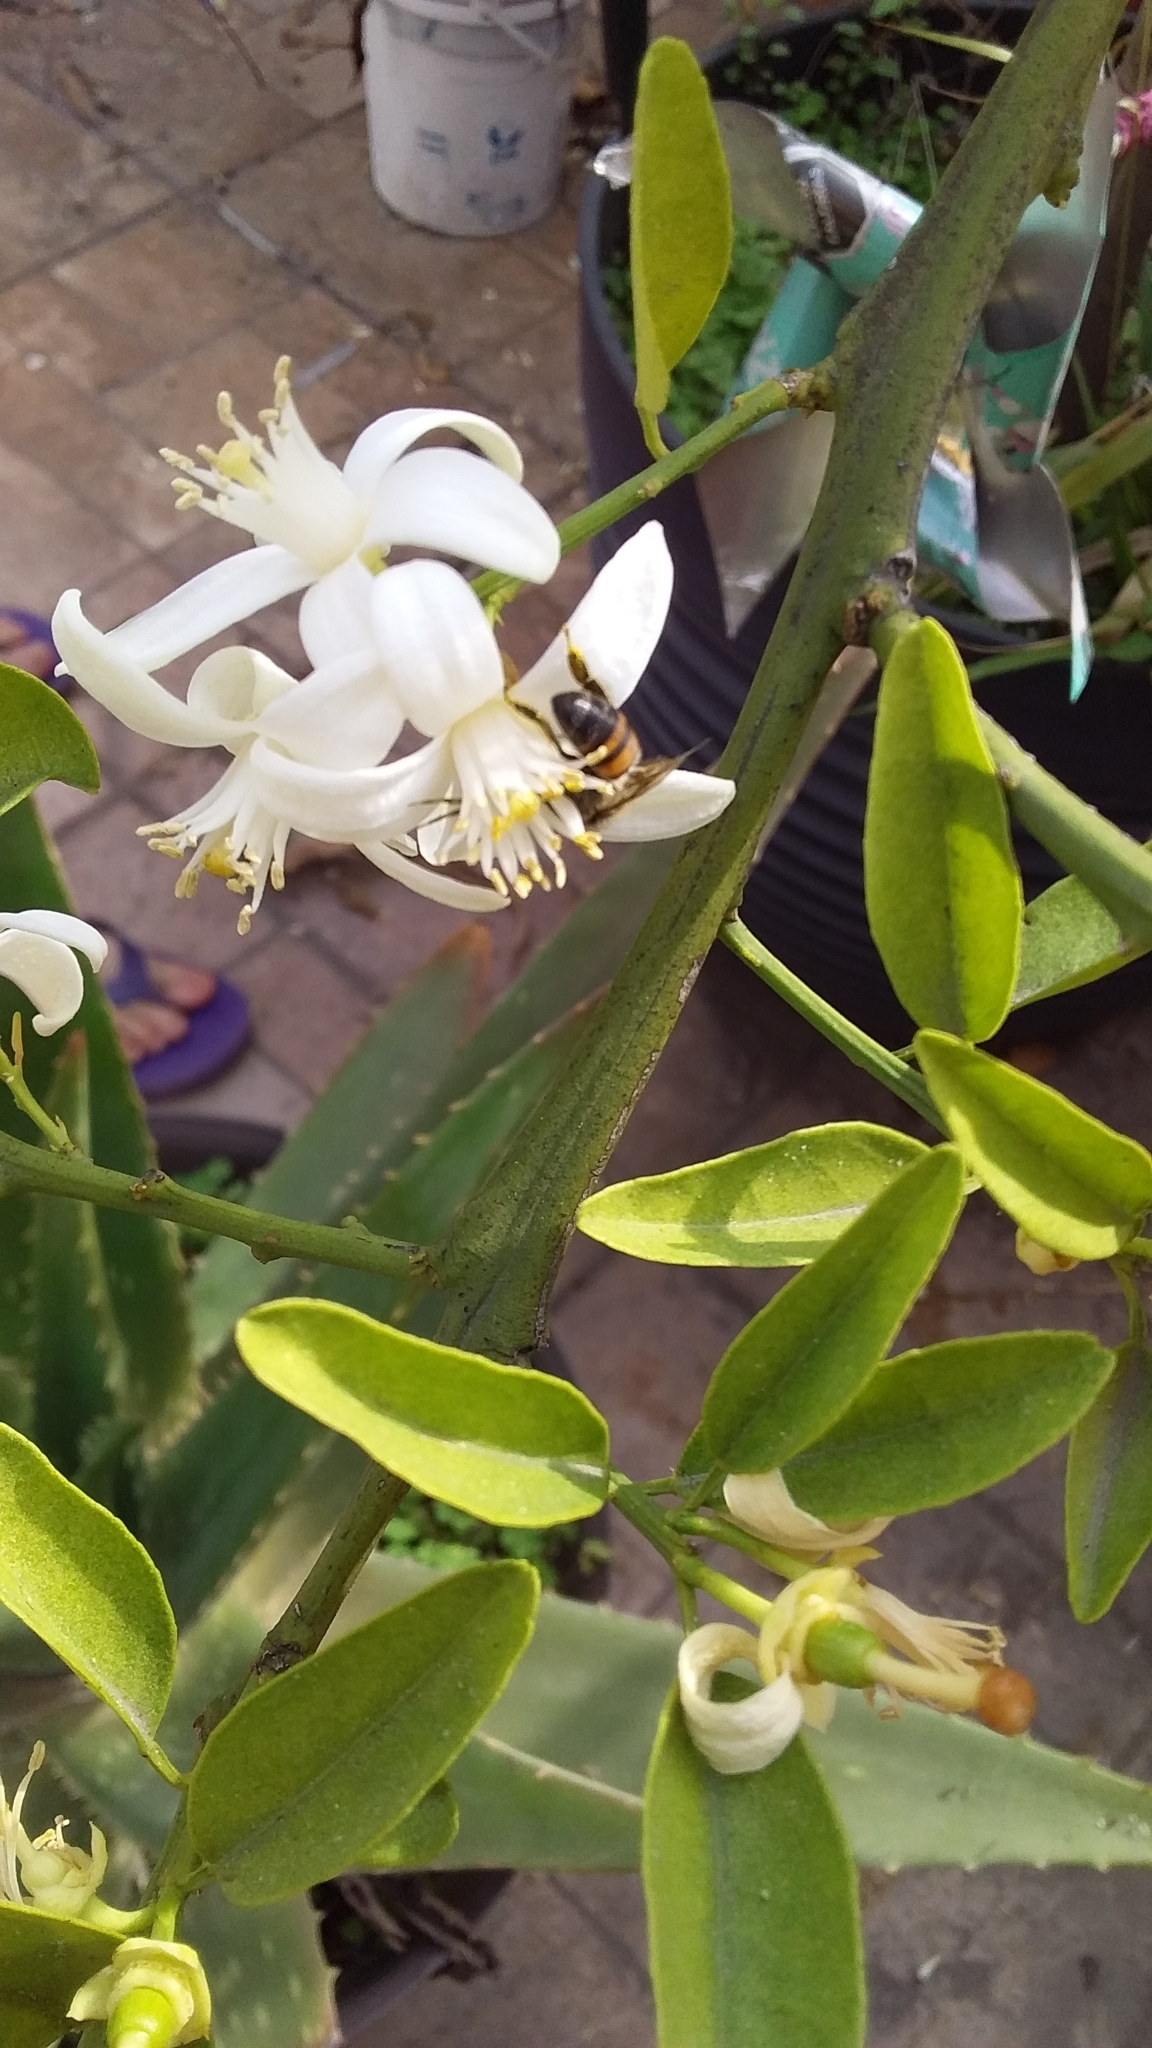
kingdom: Animalia
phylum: Arthropoda
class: Insecta
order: Hymenoptera
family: Apidae
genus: Apis
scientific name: Apis mellifera
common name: Honey bee
